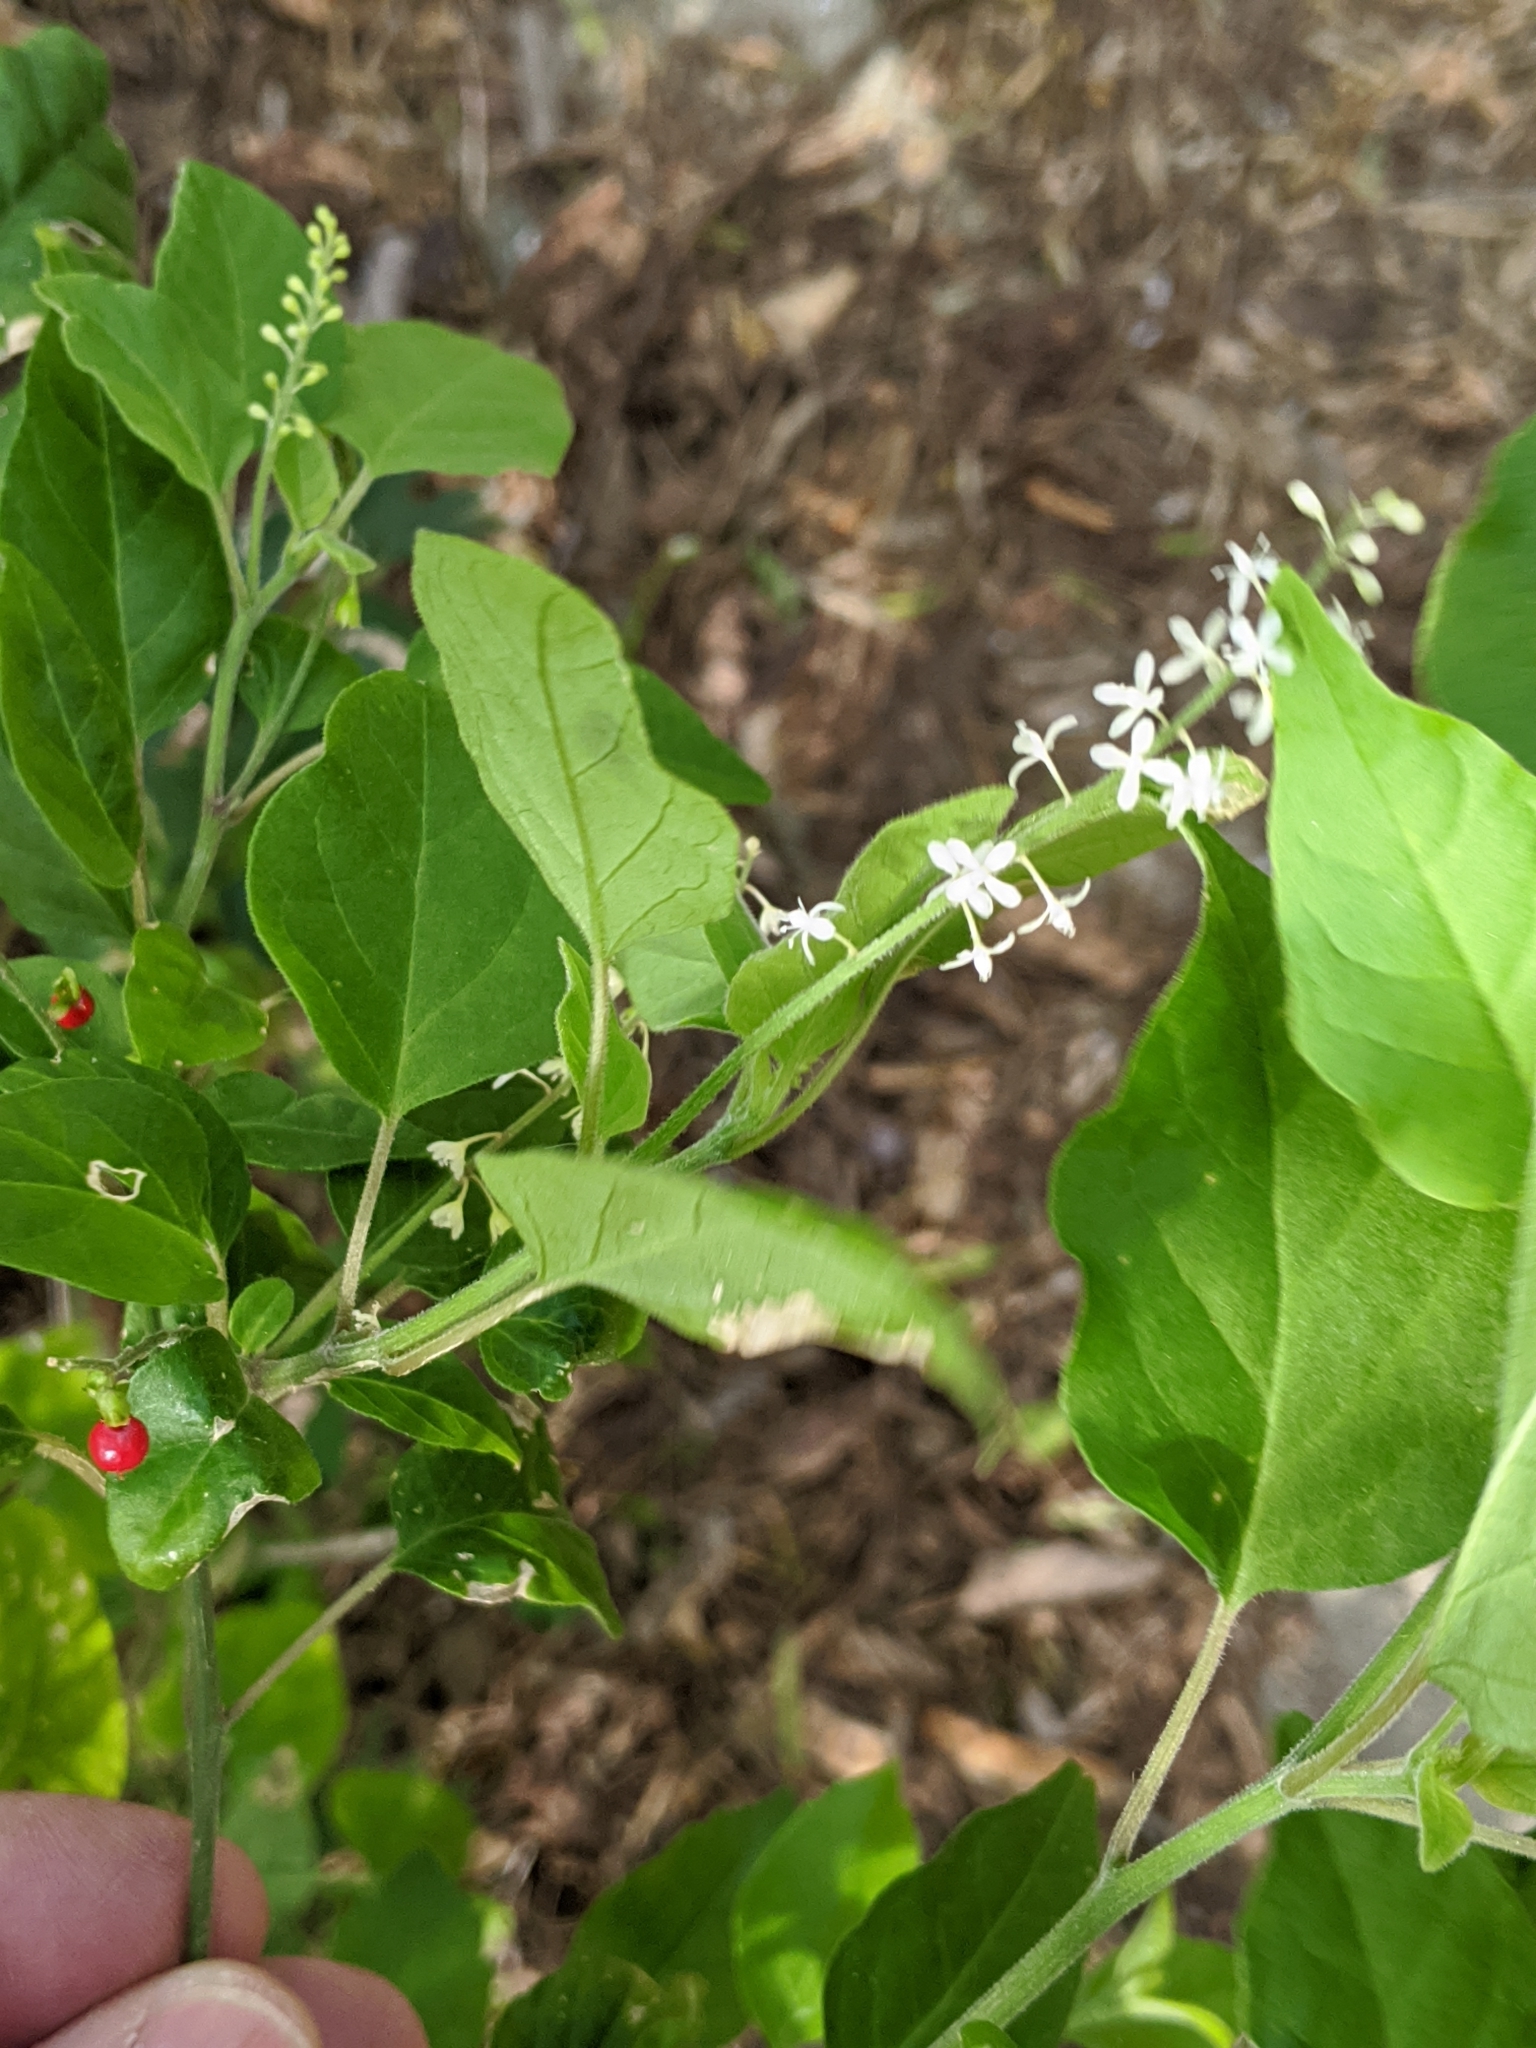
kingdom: Plantae
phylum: Tracheophyta
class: Magnoliopsida
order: Caryophyllales
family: Phytolaccaceae
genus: Rivina
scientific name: Rivina humilis
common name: Rougeplant
